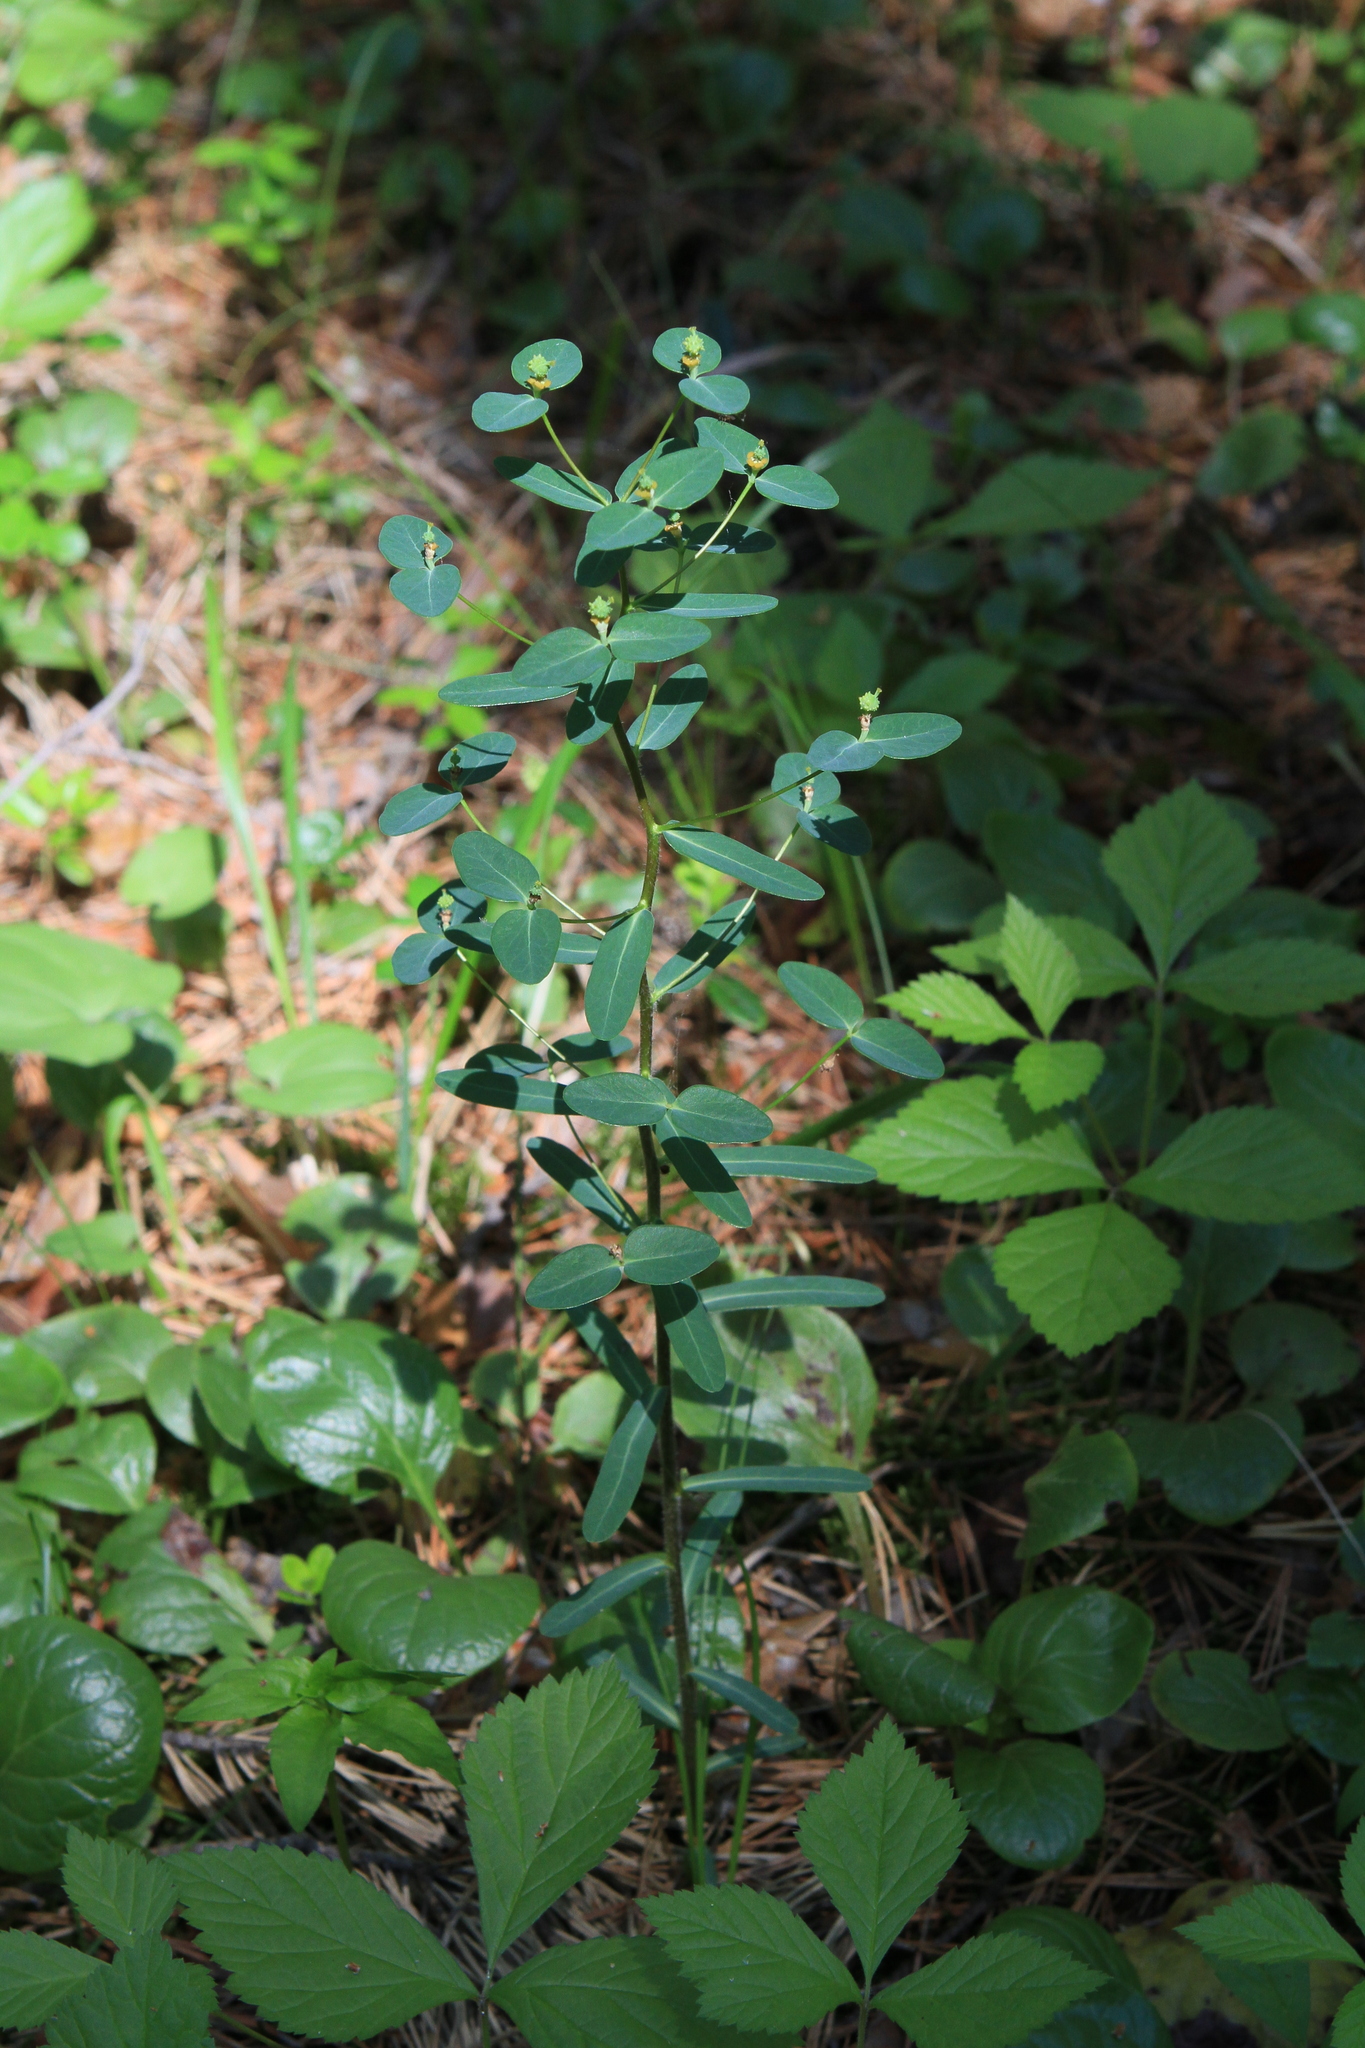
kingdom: Plantae
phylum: Tracheophyta
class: Magnoliopsida
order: Malpighiales
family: Euphorbiaceae
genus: Euphorbia
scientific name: Euphorbia jenisseiensis
